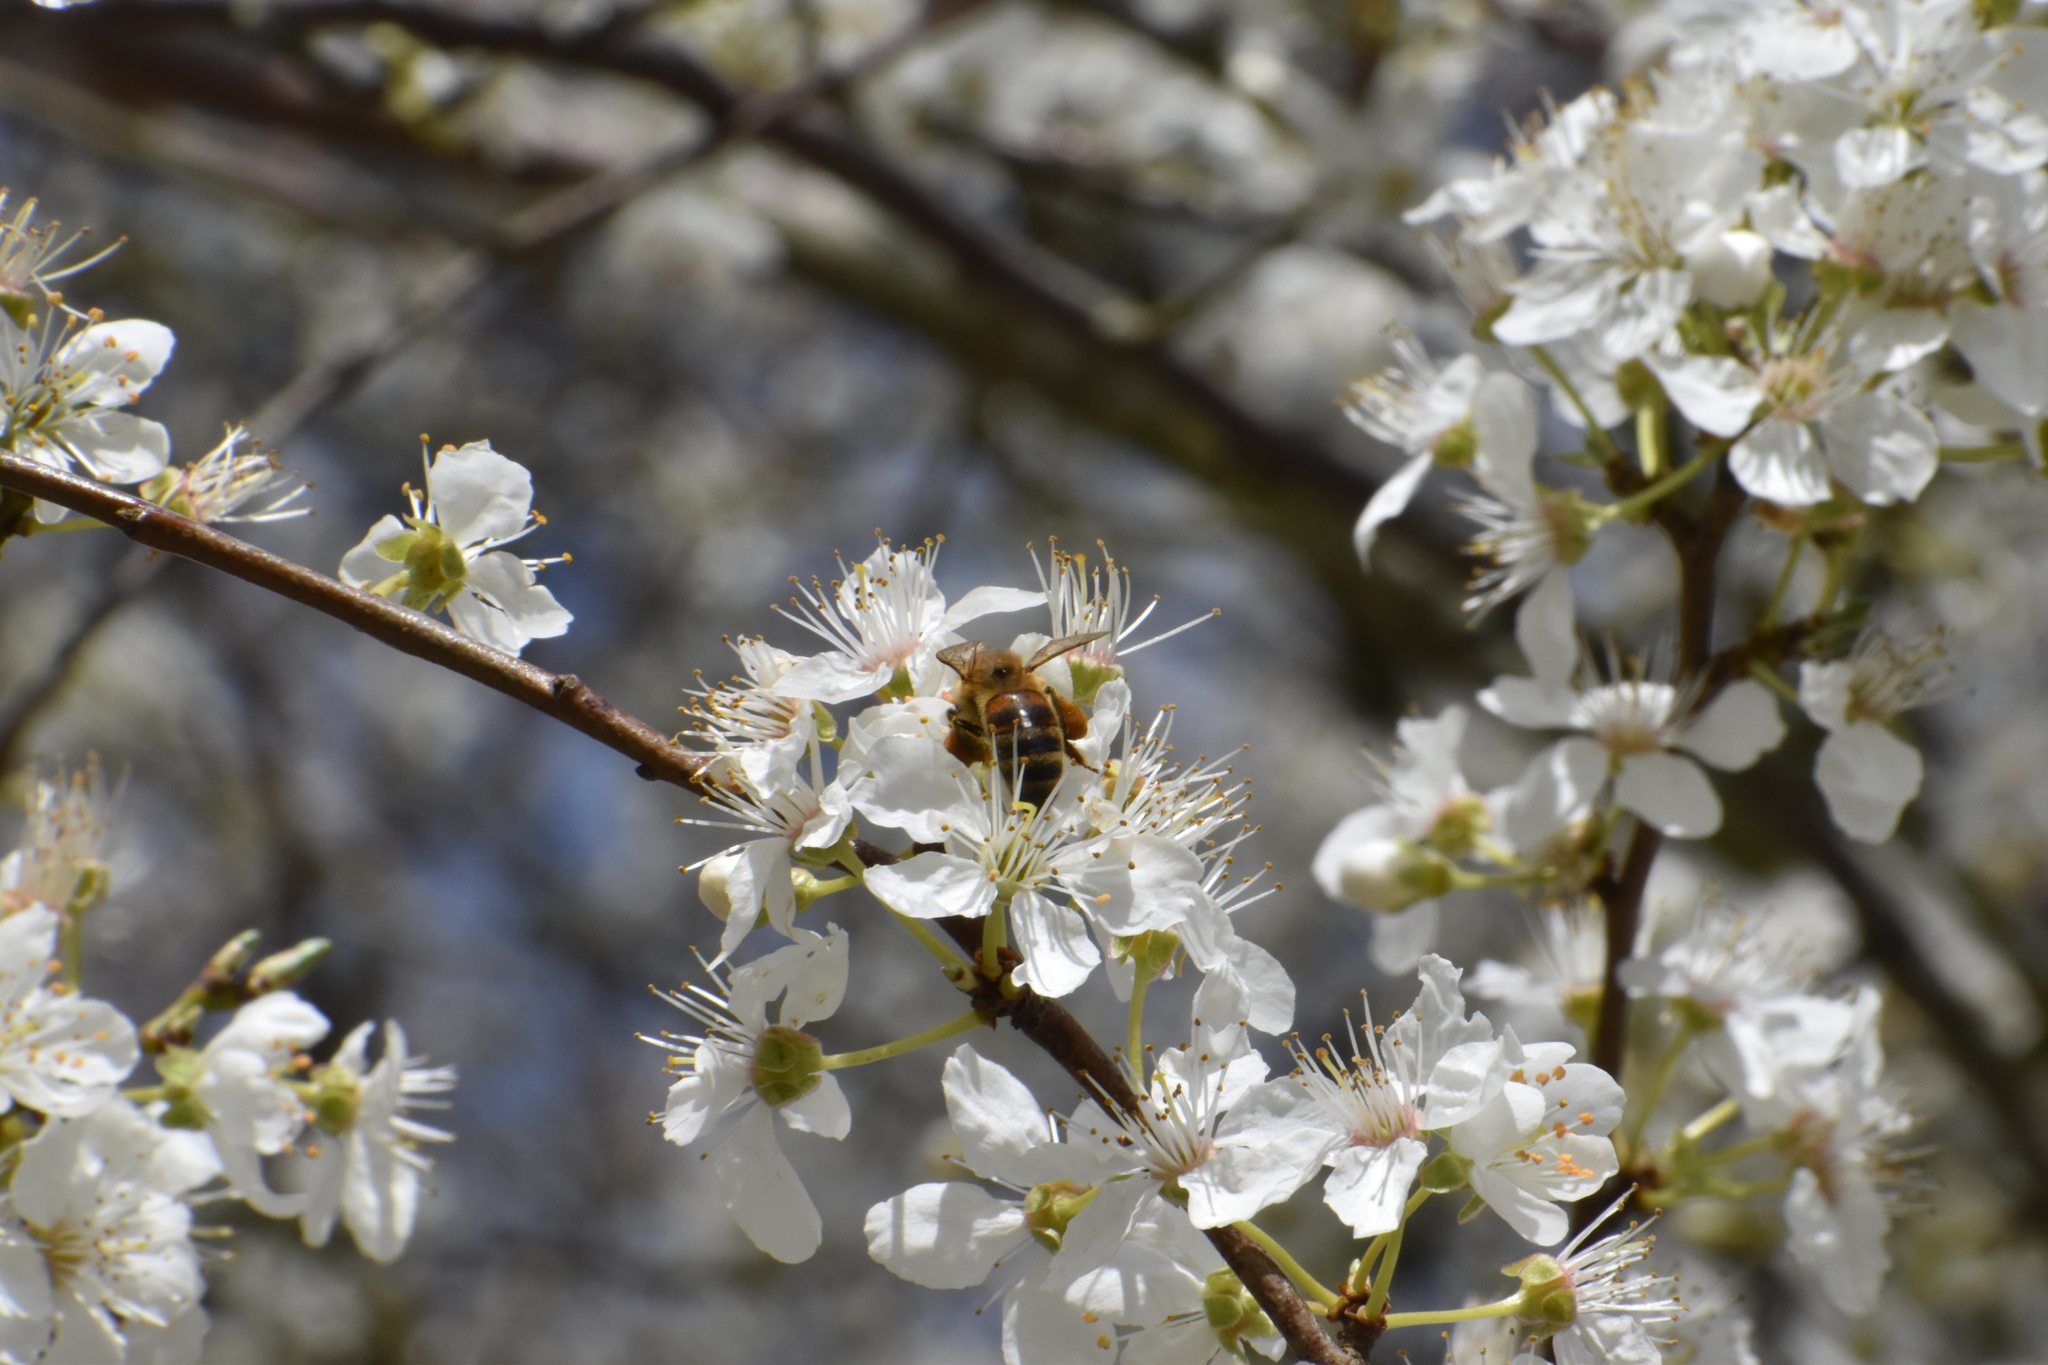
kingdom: Animalia
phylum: Arthropoda
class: Insecta
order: Hymenoptera
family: Apidae
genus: Apis
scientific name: Apis mellifera
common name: Honey bee
